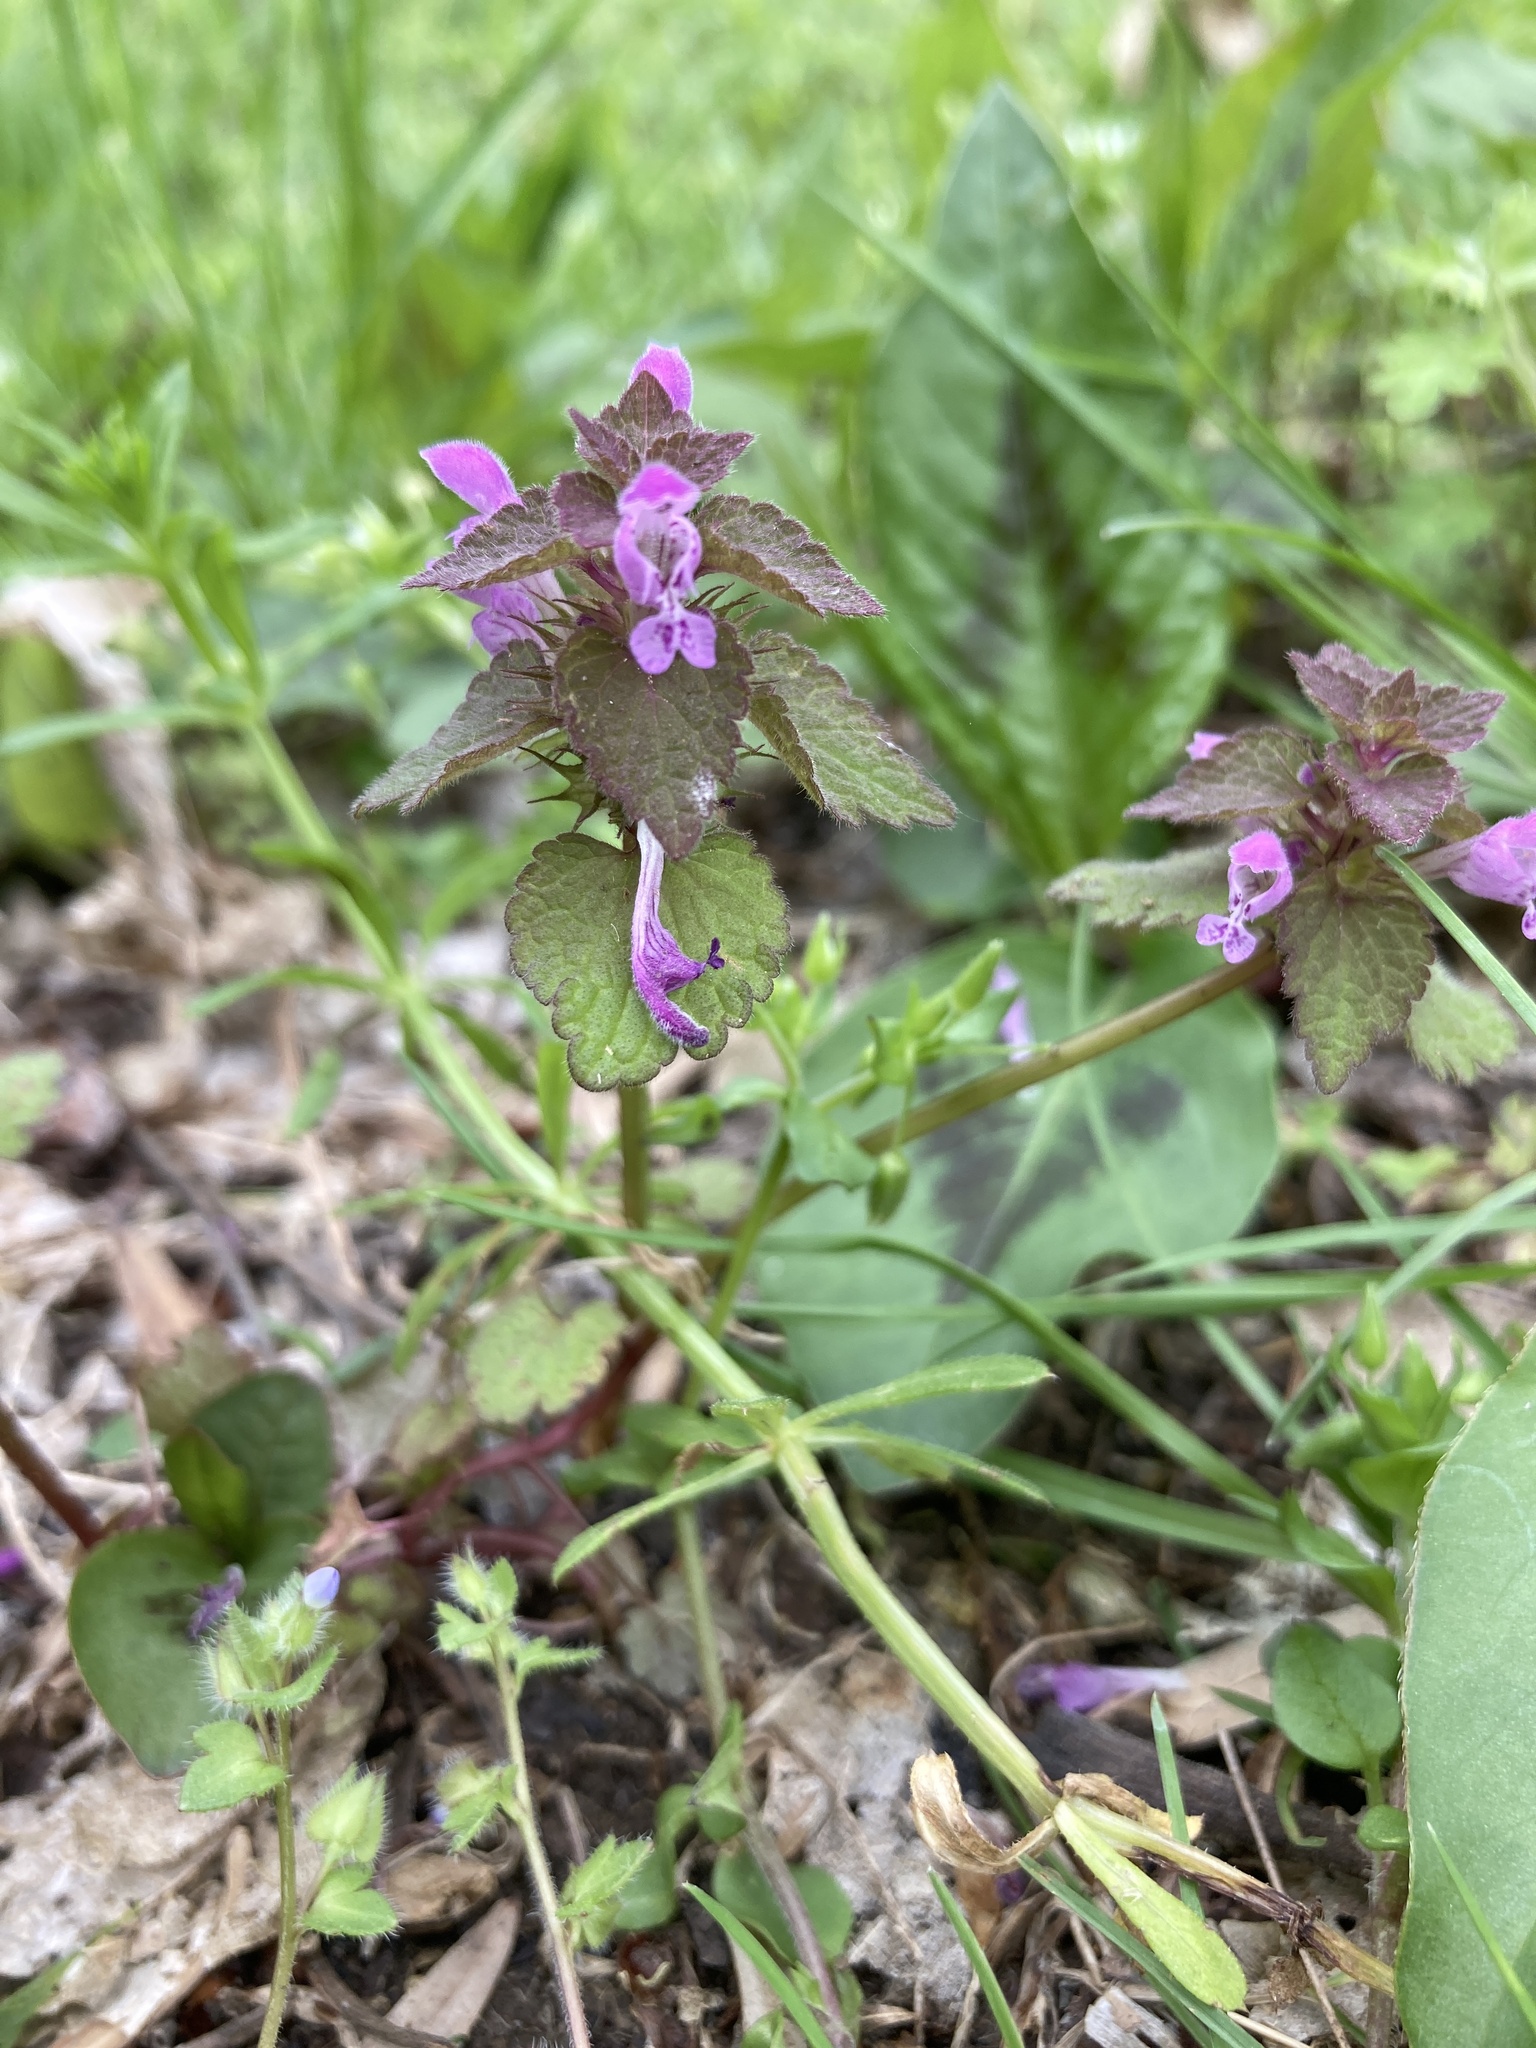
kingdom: Plantae
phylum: Tracheophyta
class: Magnoliopsida
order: Lamiales
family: Lamiaceae
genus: Lamium
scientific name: Lamium purpureum
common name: Red dead-nettle
